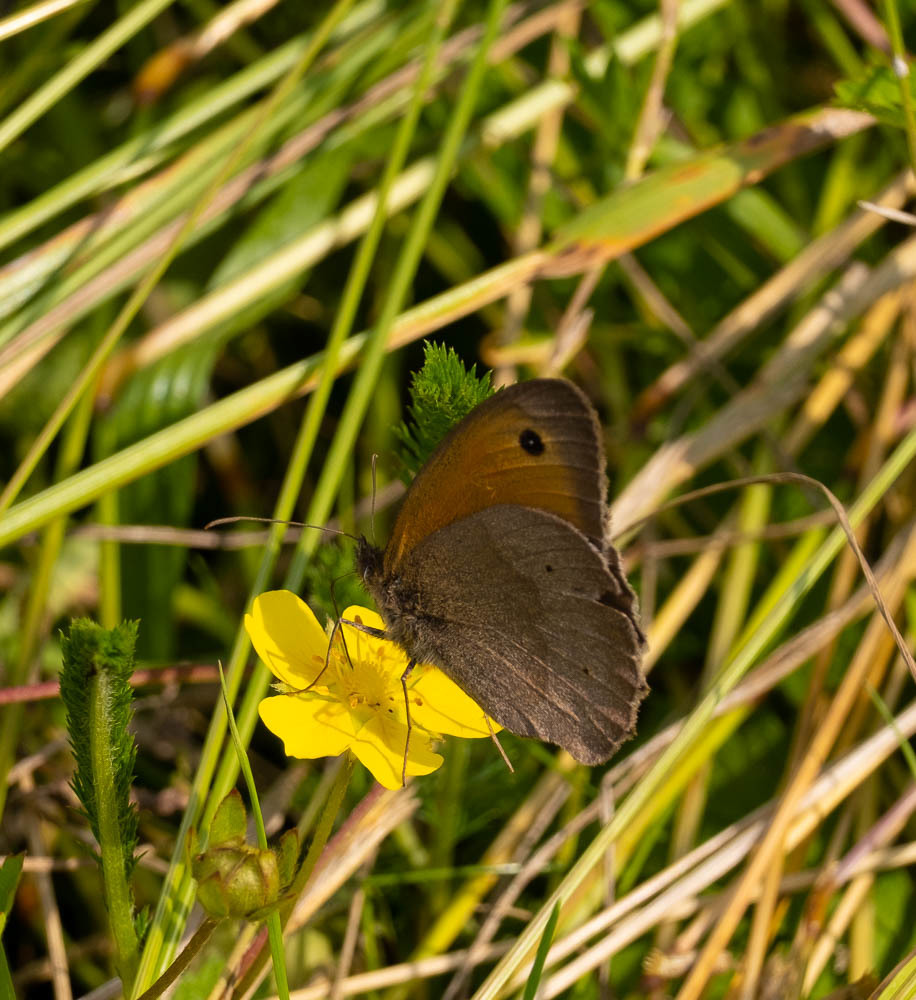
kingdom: Animalia
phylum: Arthropoda
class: Insecta
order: Lepidoptera
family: Nymphalidae
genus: Maniola
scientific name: Maniola jurtina
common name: Meadow brown
